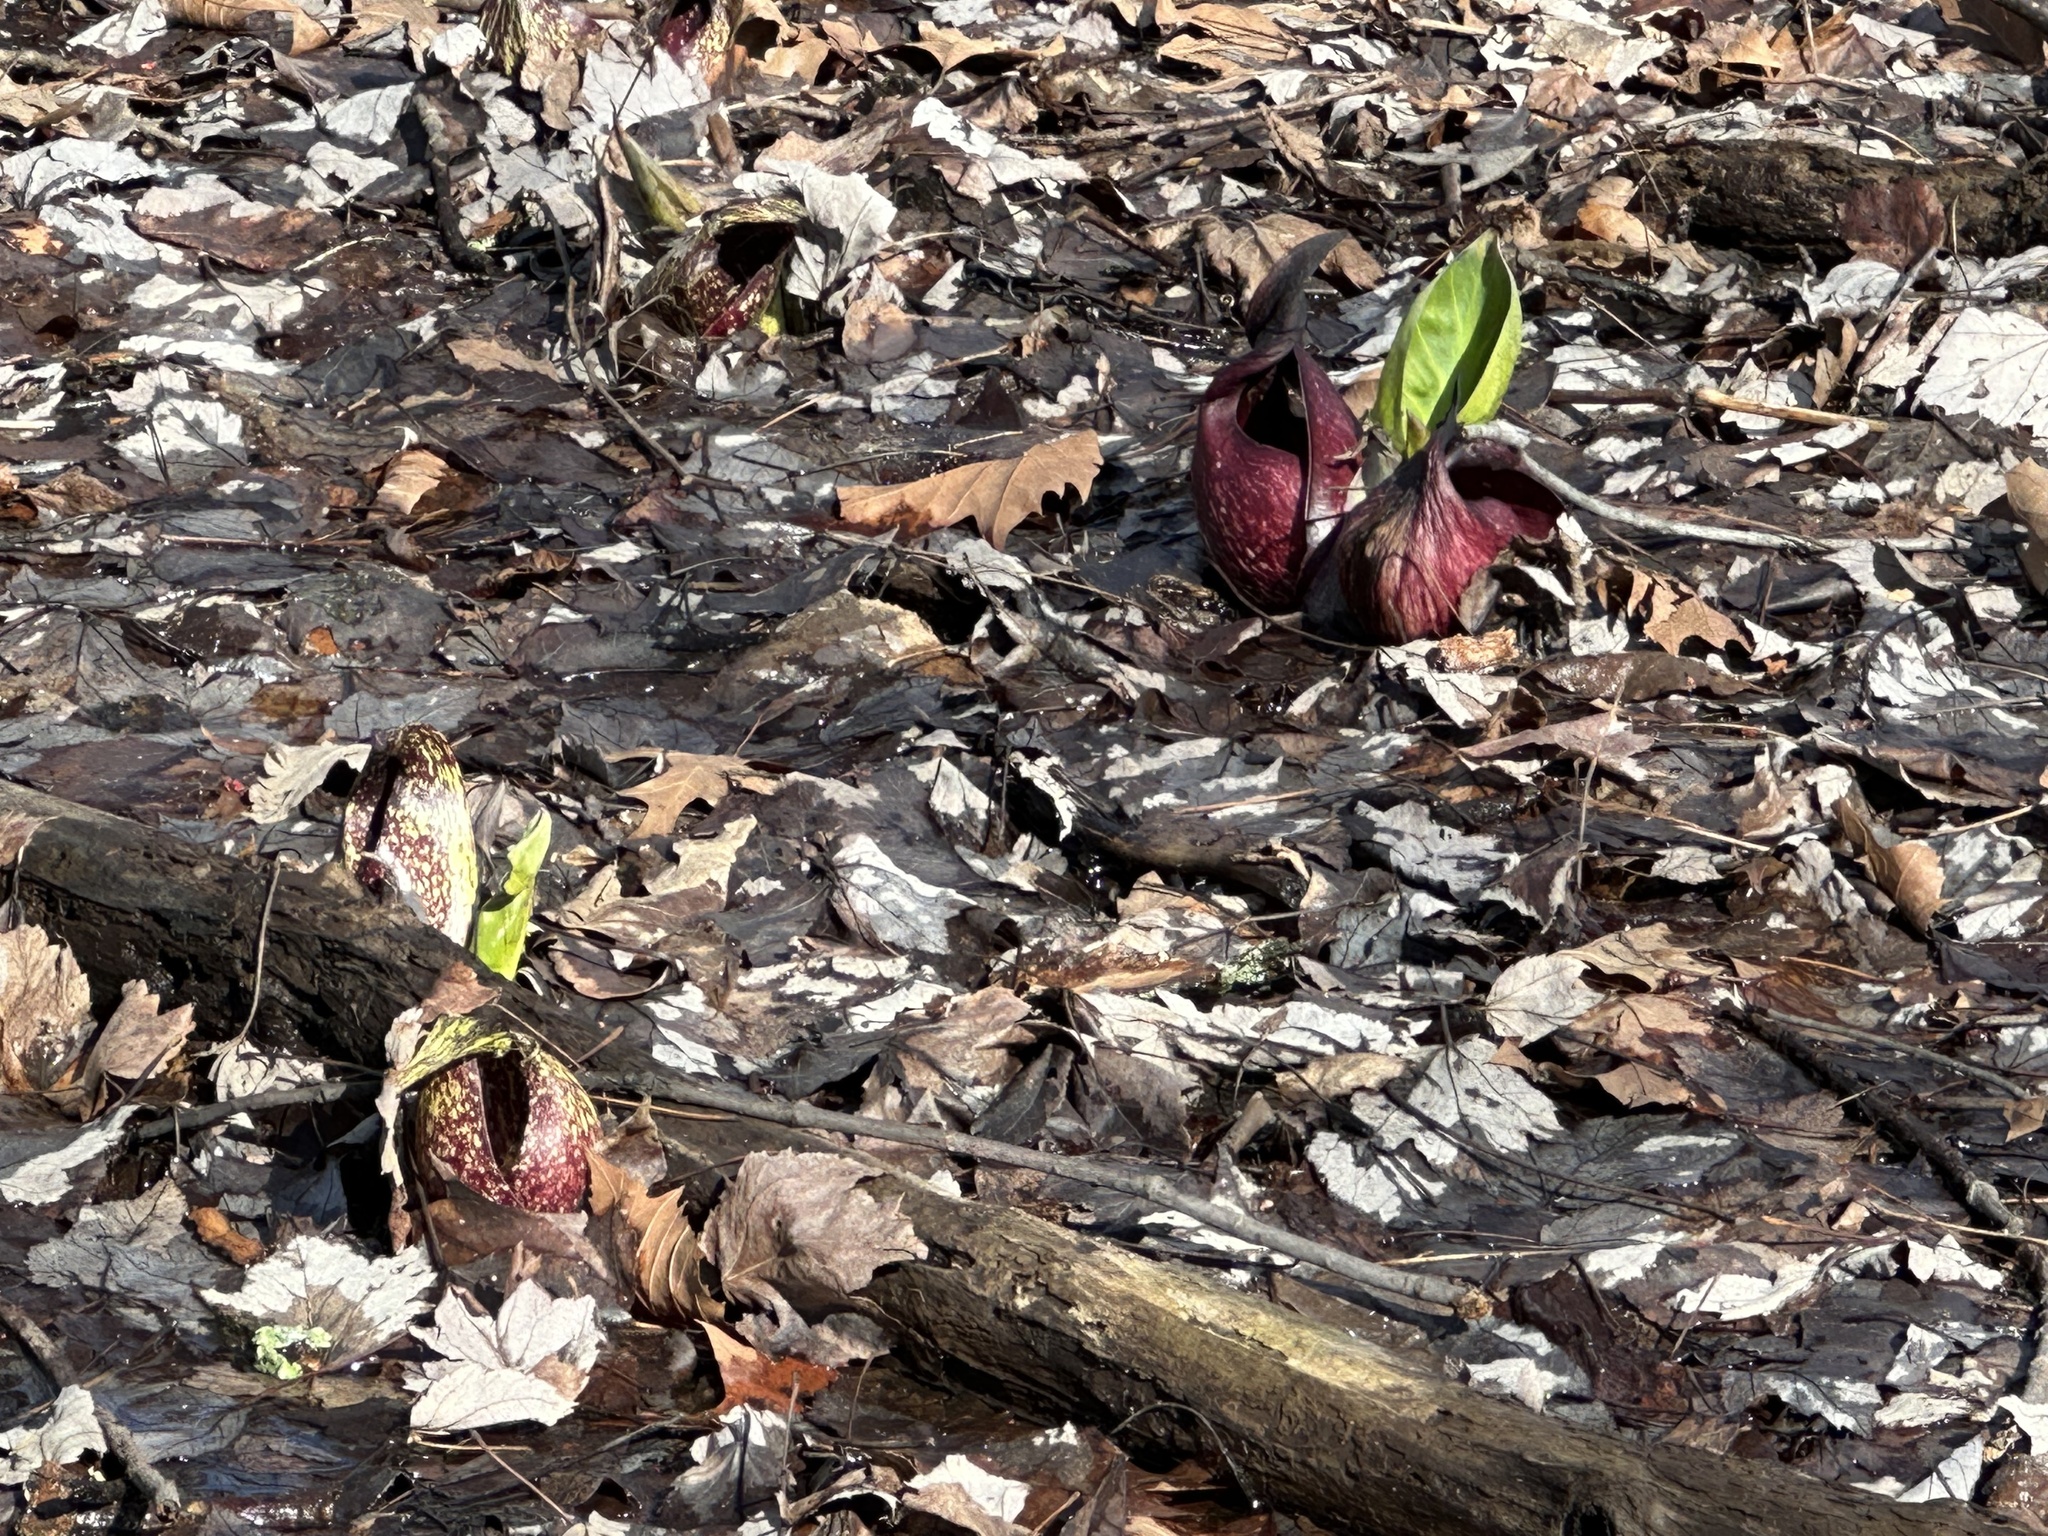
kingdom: Plantae
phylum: Tracheophyta
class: Liliopsida
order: Alismatales
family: Araceae
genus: Symplocarpus
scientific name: Symplocarpus foetidus
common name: Eastern skunk cabbage
